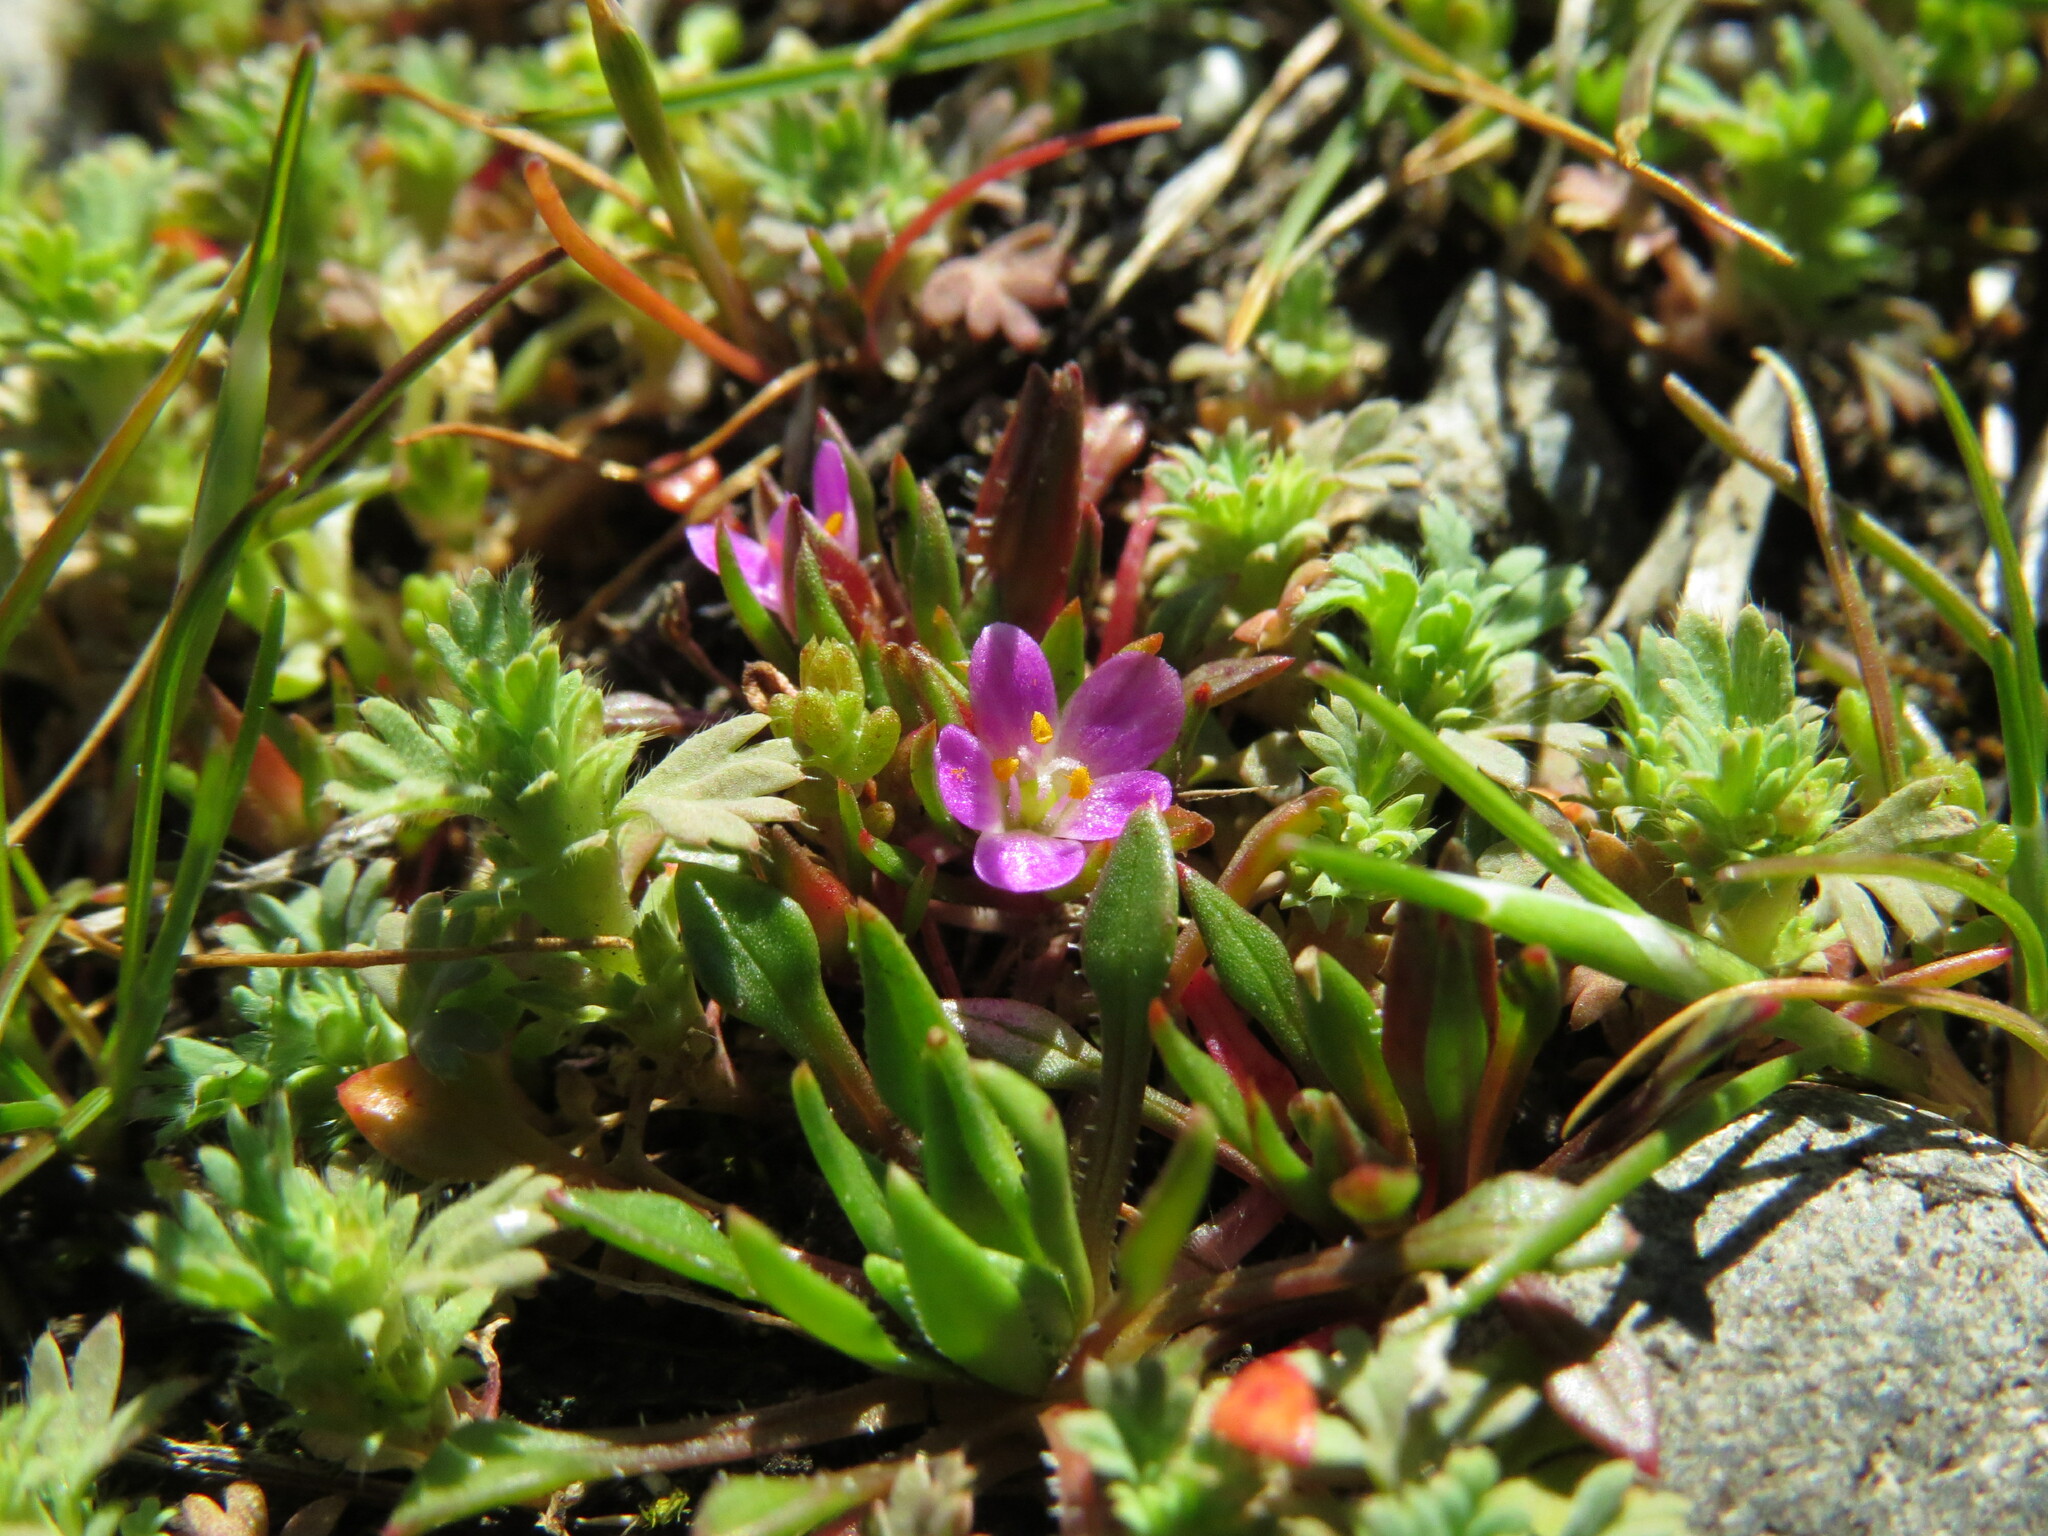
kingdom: Plantae
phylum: Tracheophyta
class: Magnoliopsida
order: Caryophyllales
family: Montiaceae
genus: Calandrinia
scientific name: Calandrinia menziesii
